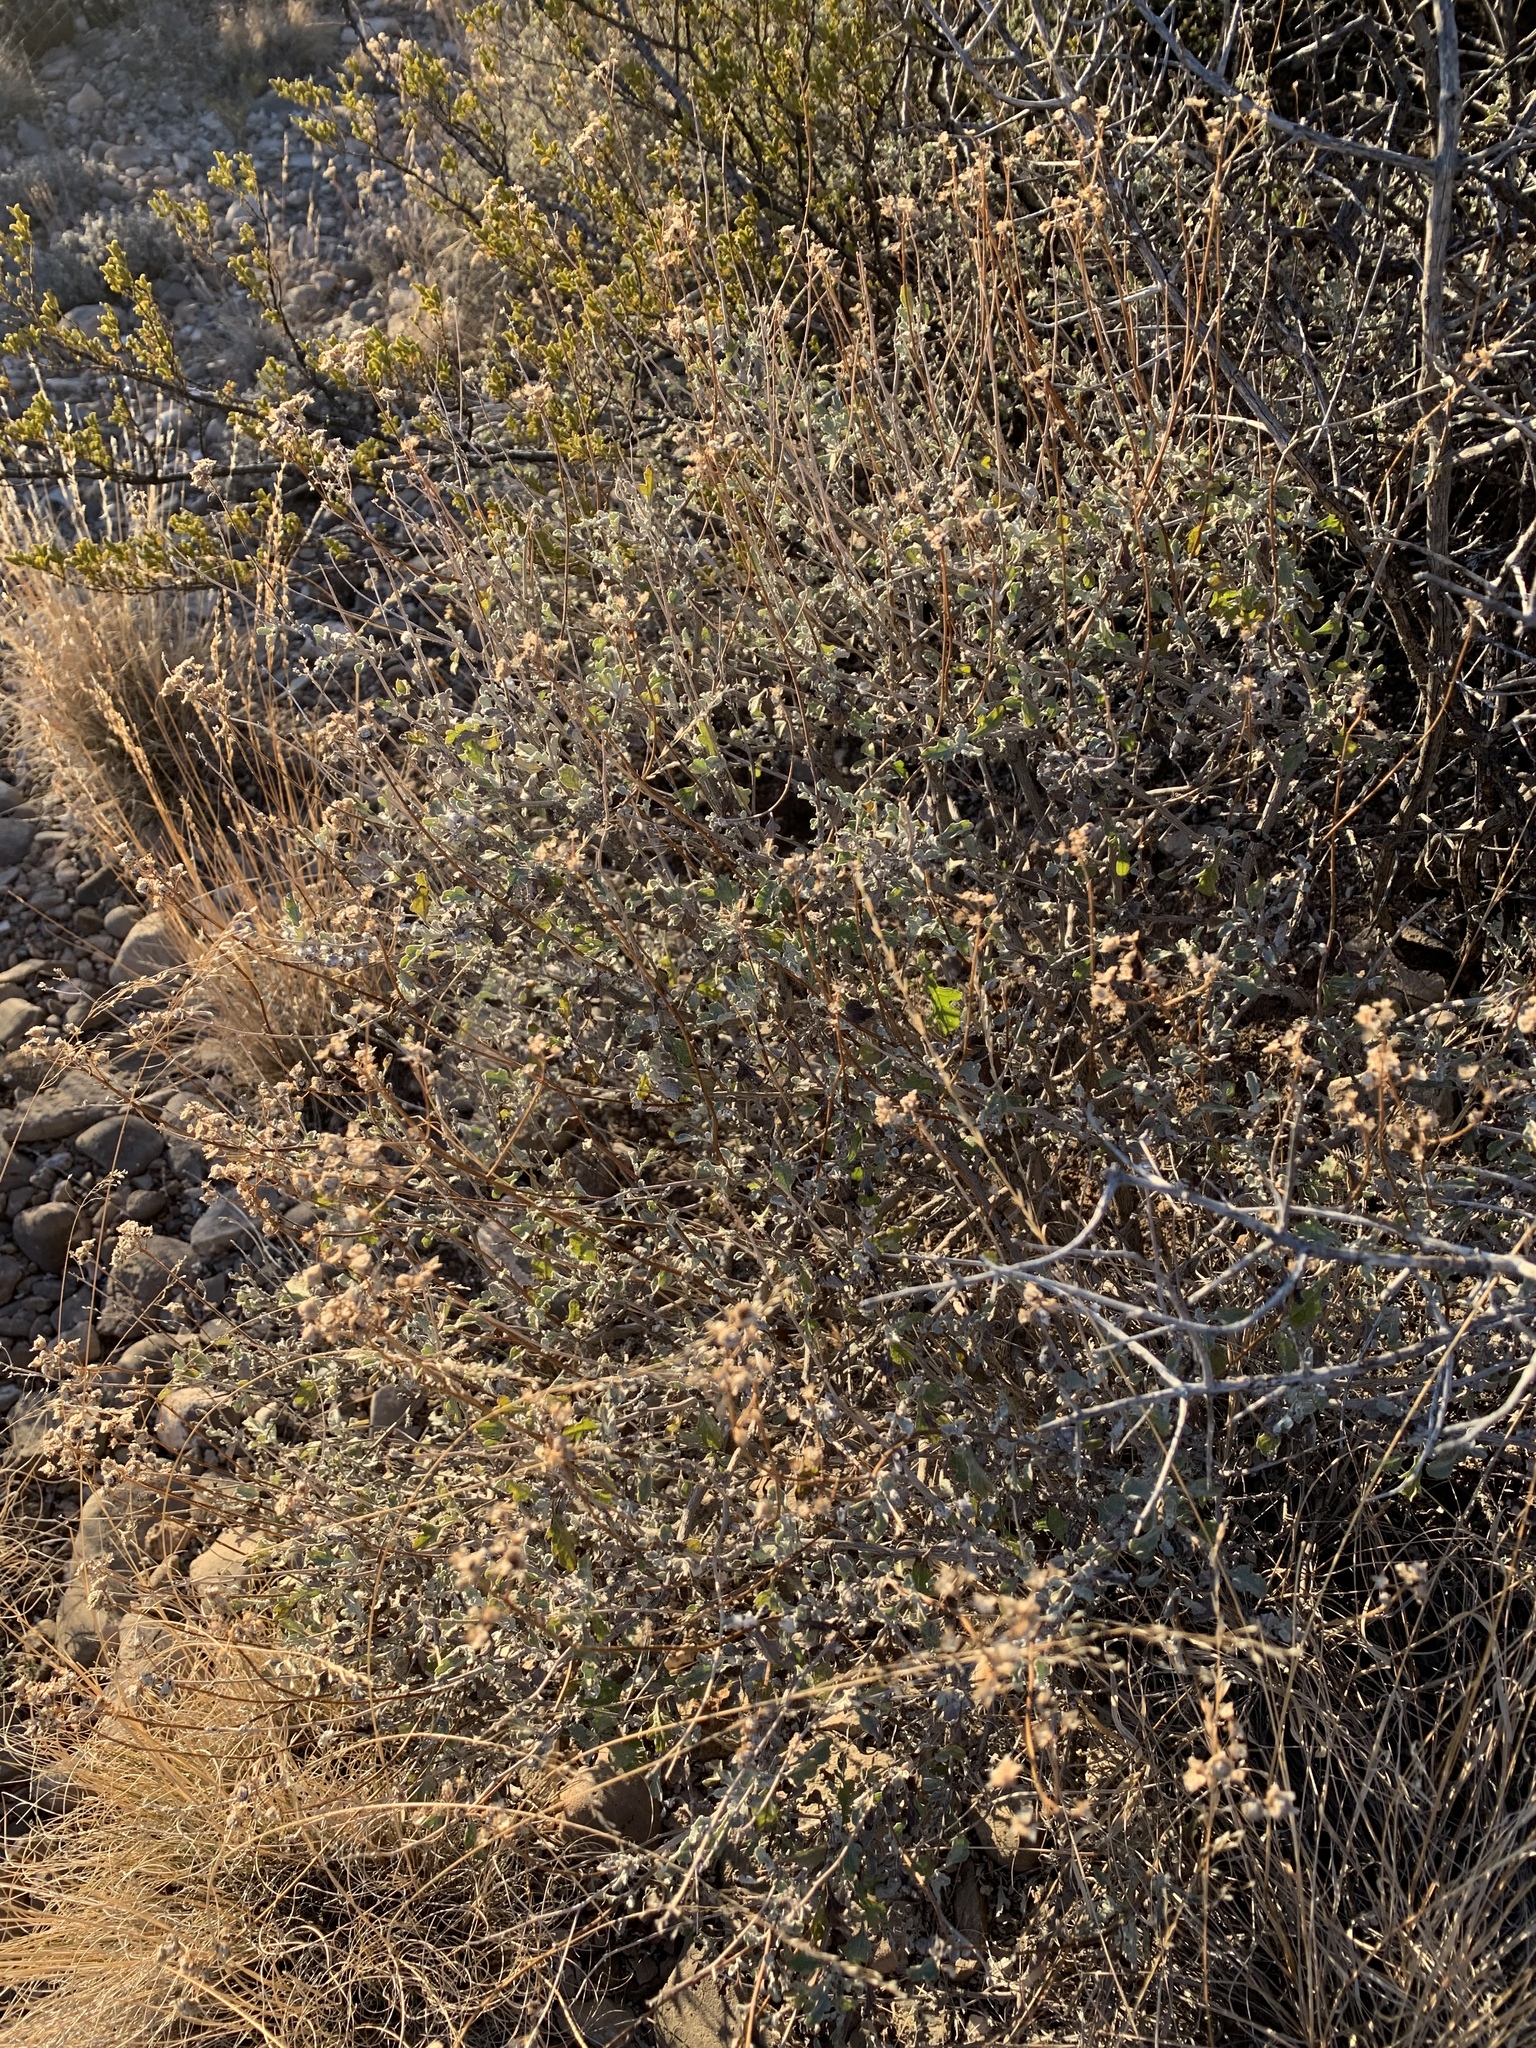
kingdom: Plantae
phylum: Tracheophyta
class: Magnoliopsida
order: Asterales
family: Asteraceae
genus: Parthenium
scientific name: Parthenium incanum
